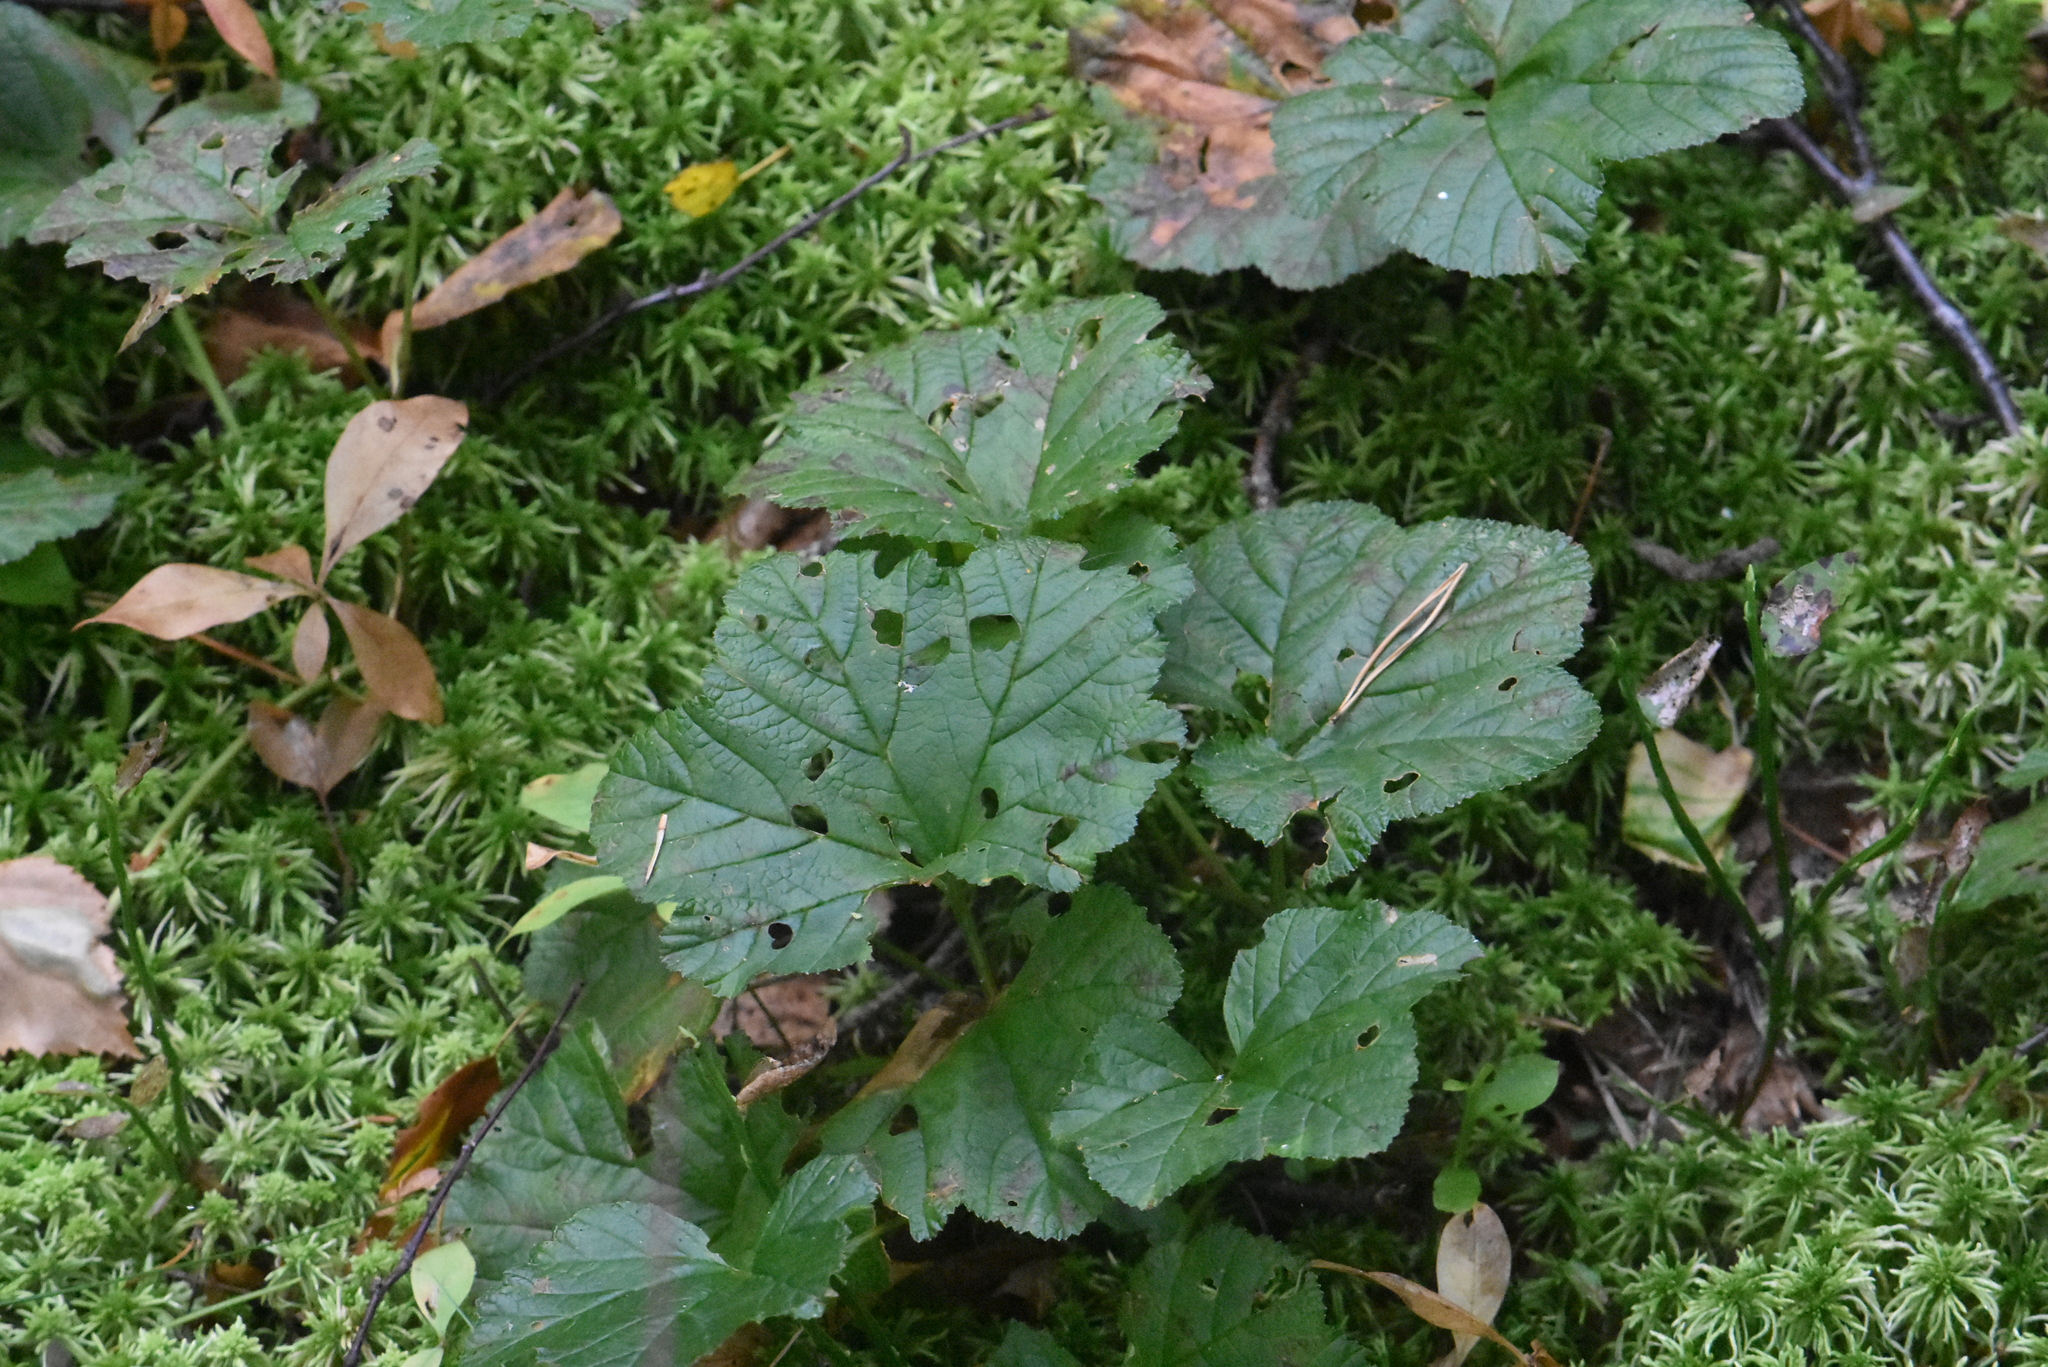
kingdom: Plantae
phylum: Tracheophyta
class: Magnoliopsida
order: Rosales
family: Rosaceae
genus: Rubus
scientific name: Rubus chamaemorus
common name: Cloudberry
